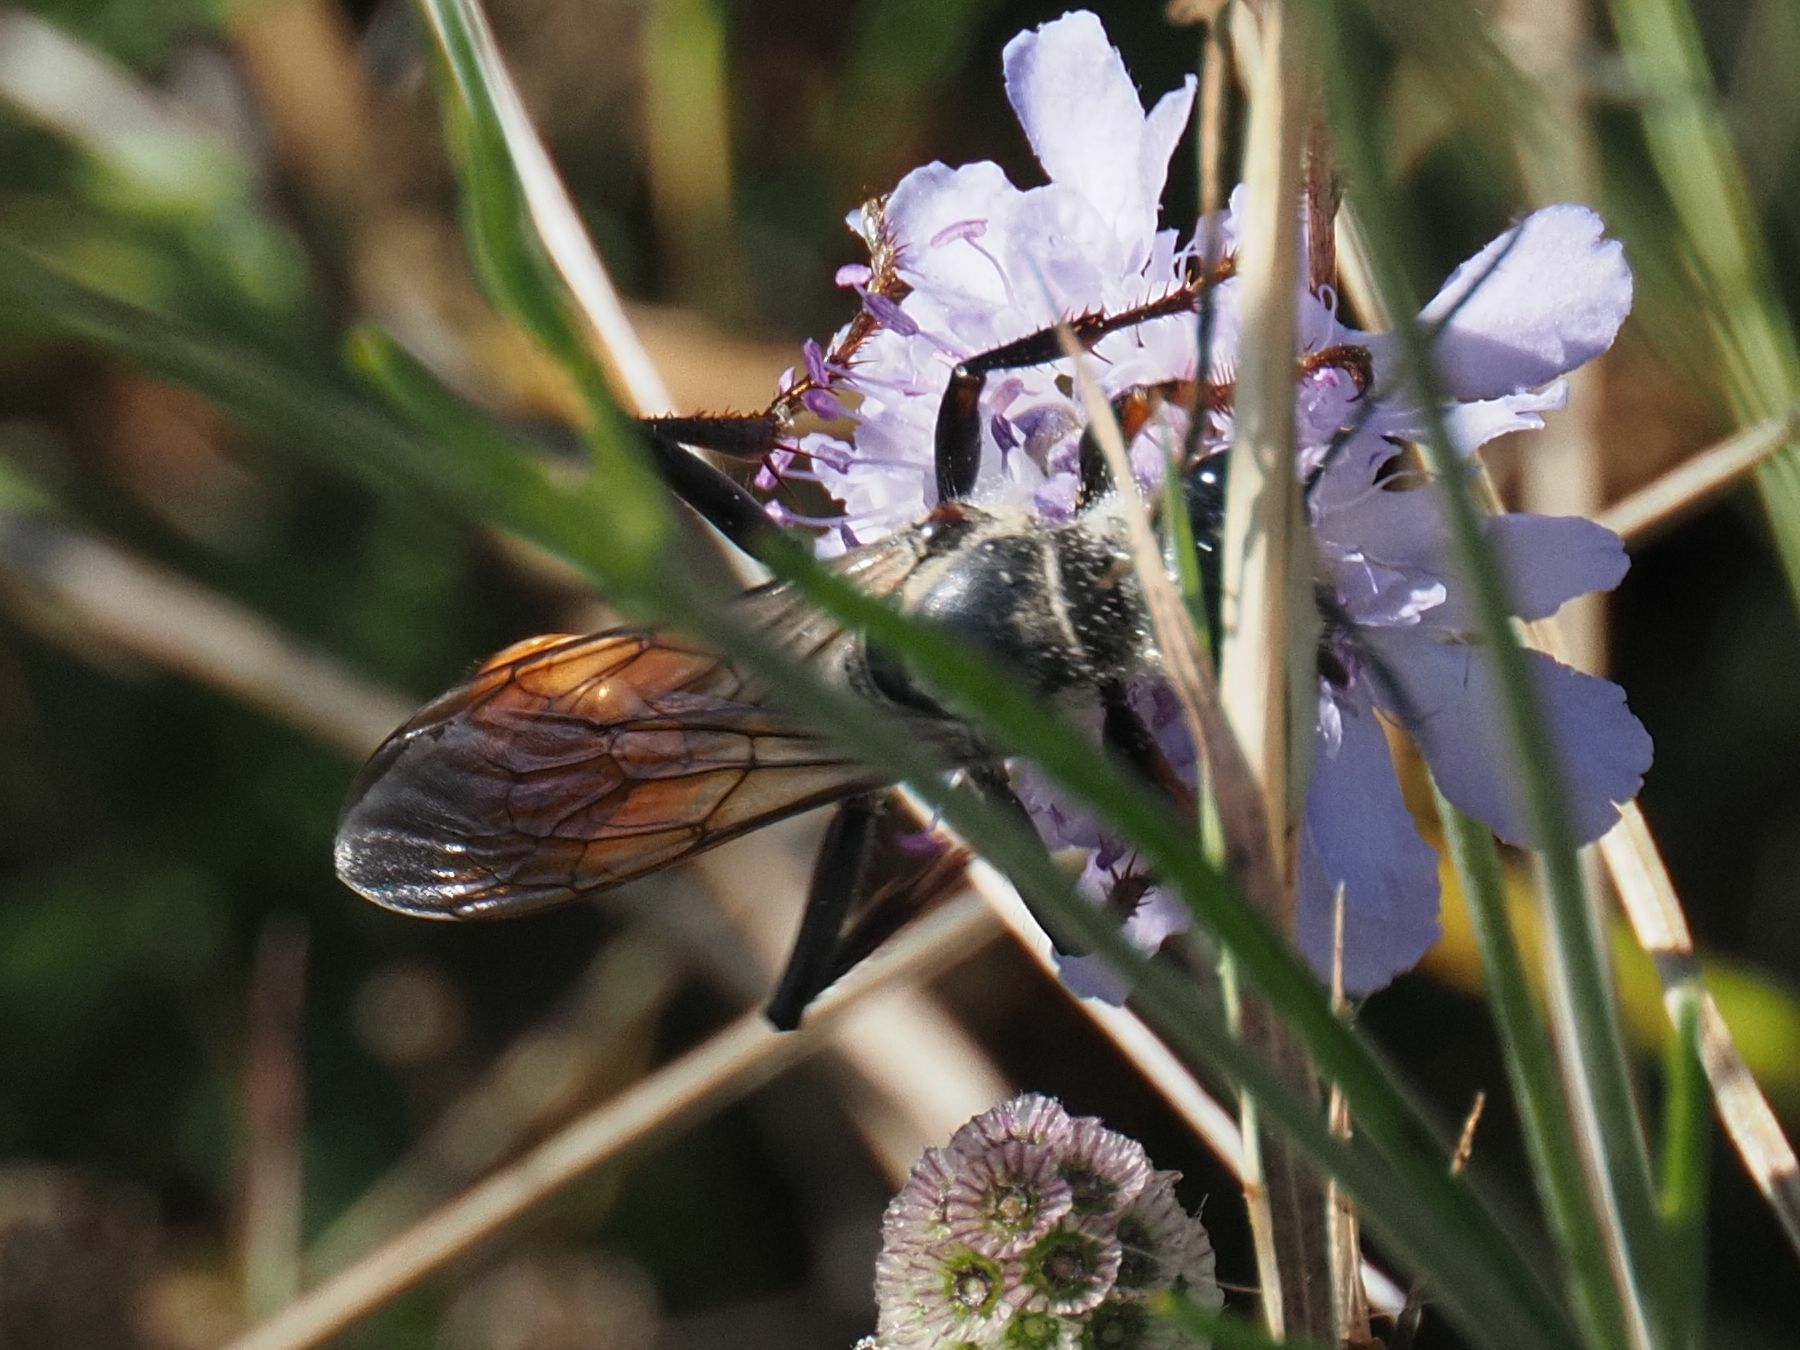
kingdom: Animalia
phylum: Arthropoda
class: Insecta
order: Hymenoptera
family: Sphecidae
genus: Sphex
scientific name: Sphex funerarius
